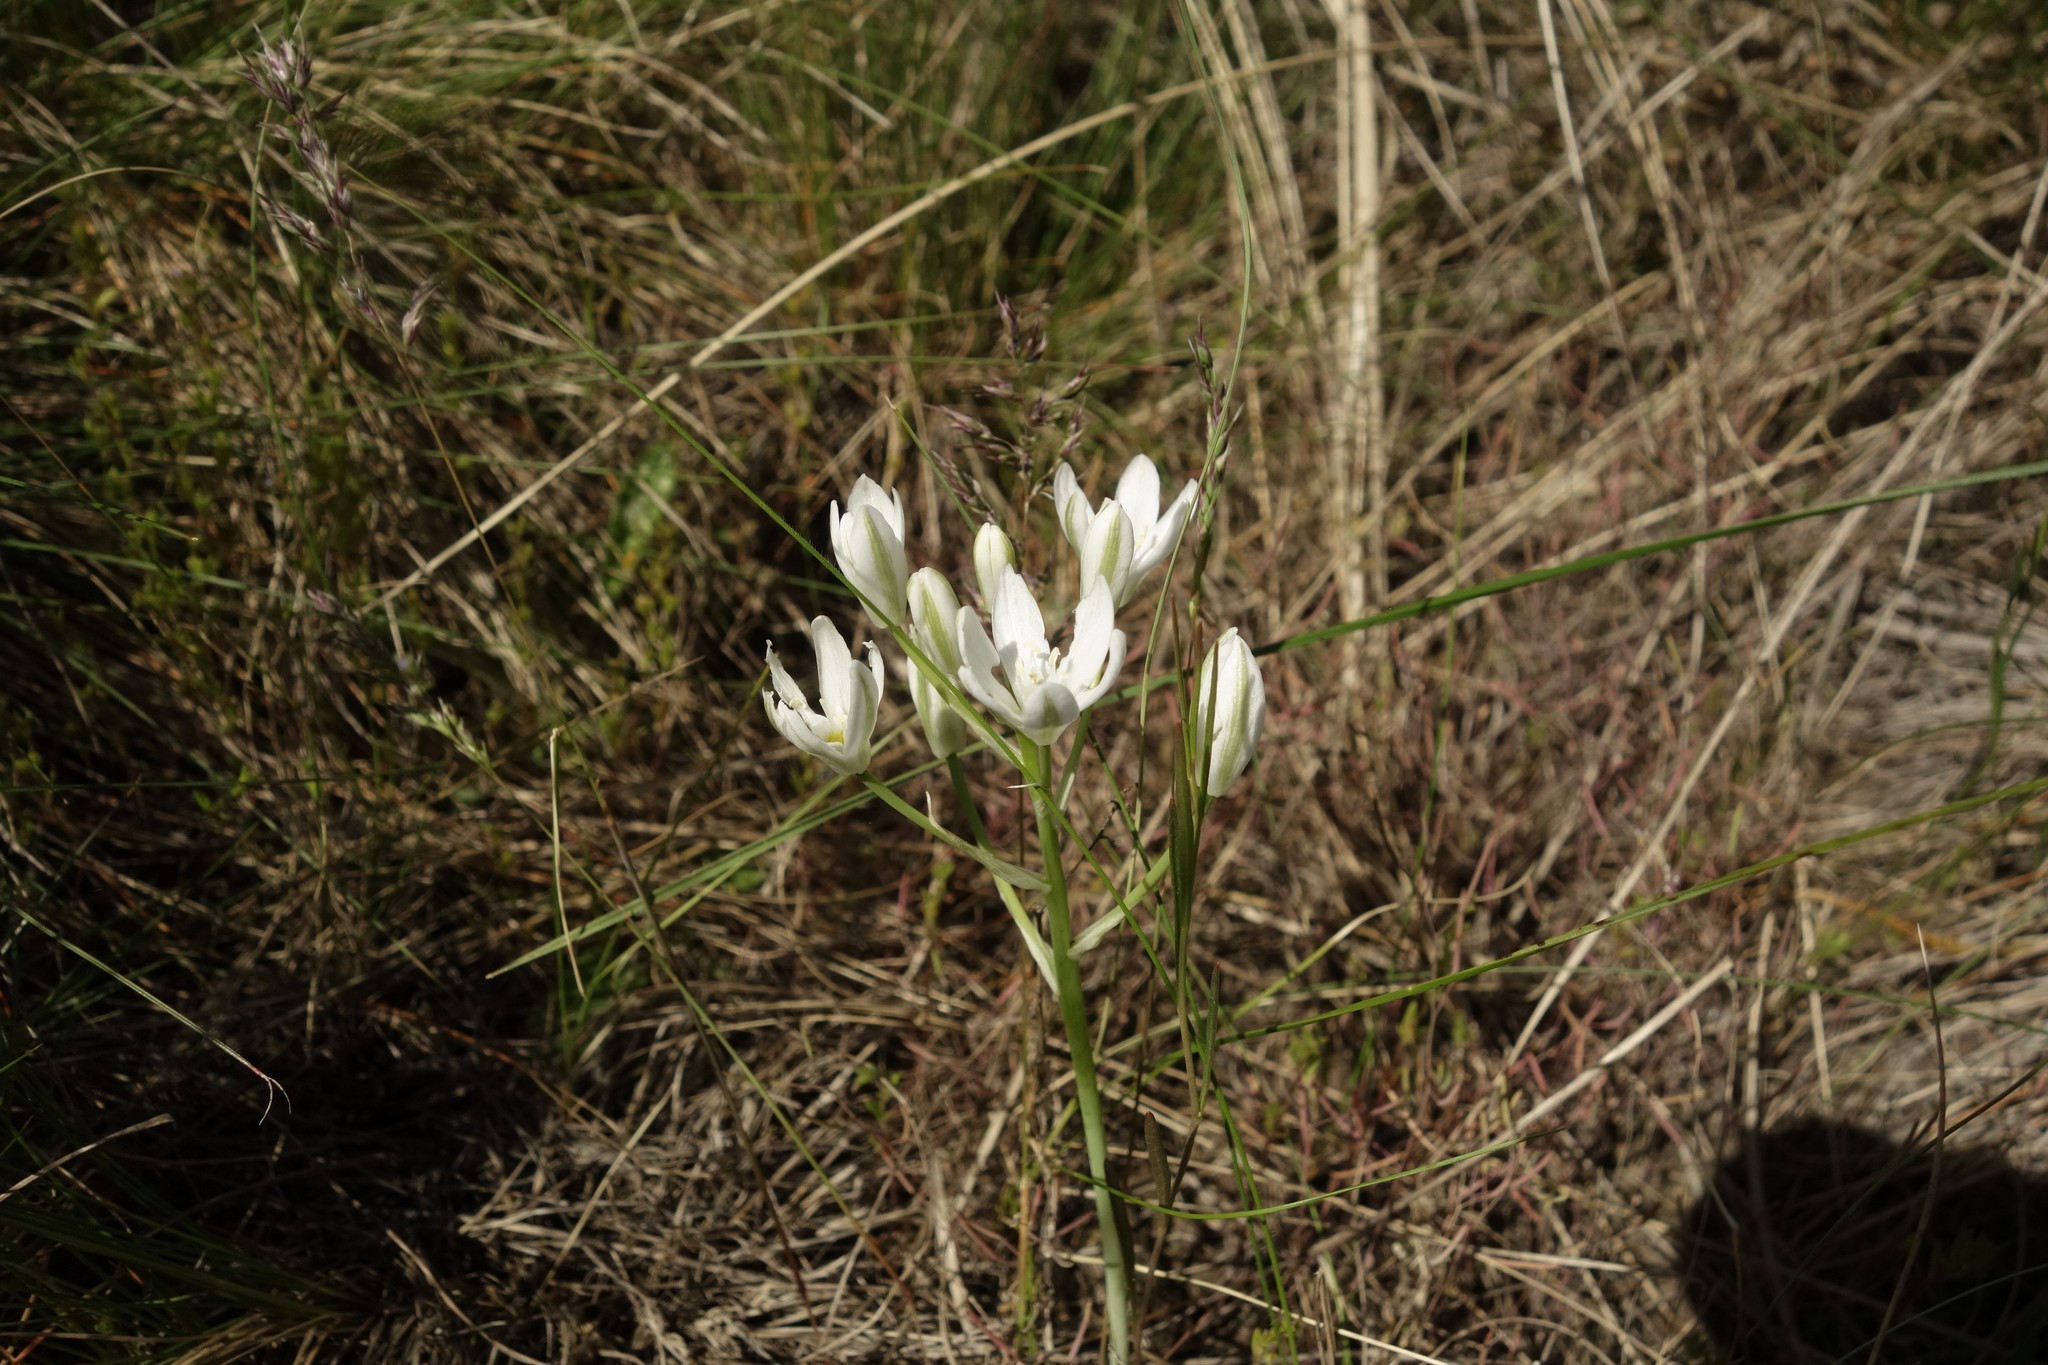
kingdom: Plantae
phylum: Tracheophyta
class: Liliopsida
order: Asparagales
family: Asparagaceae
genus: Ornithogalum
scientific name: Ornithogalum orthophyllum
